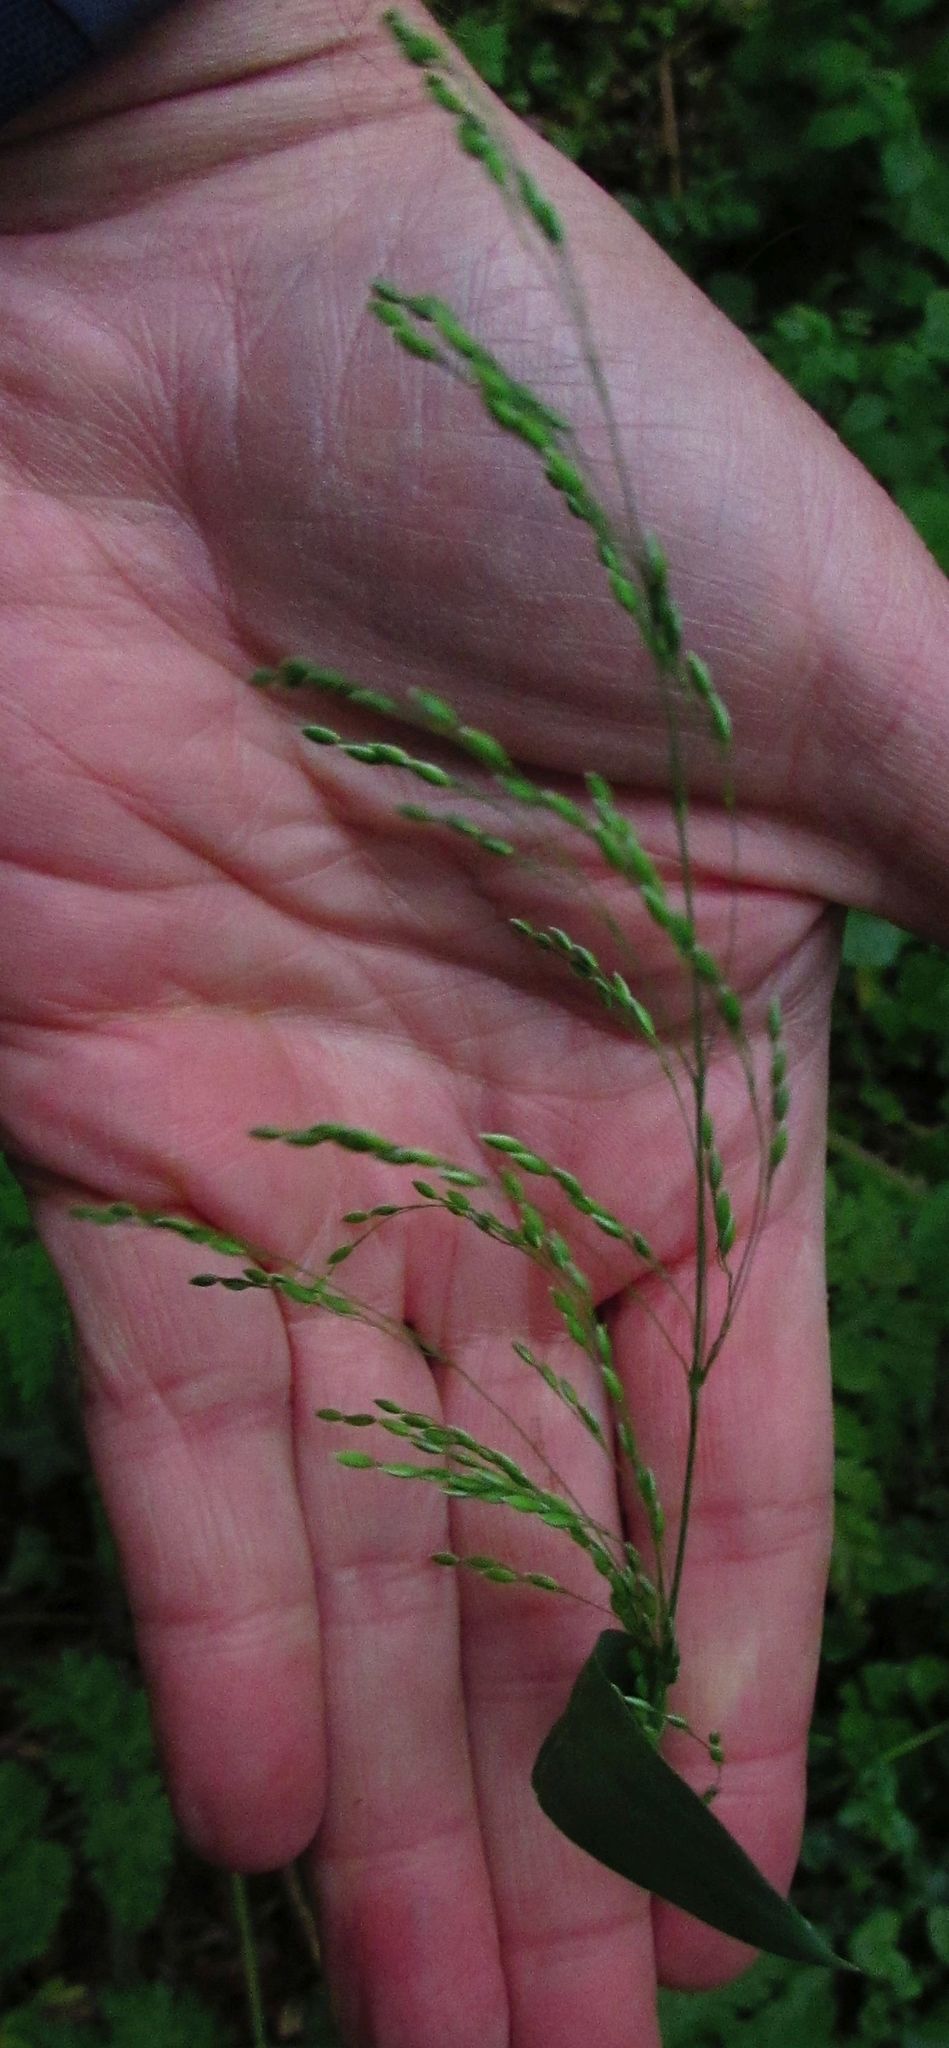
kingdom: Plantae
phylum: Tracheophyta
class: Liliopsida
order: Poales
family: Poaceae
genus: Milium
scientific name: Milium effusum
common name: Wood millet
